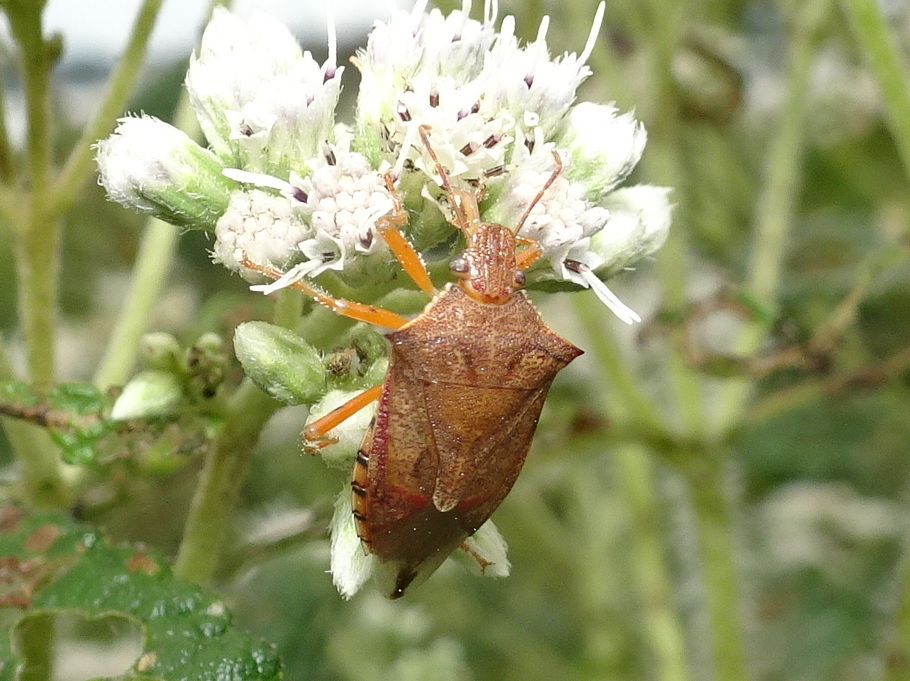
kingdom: Animalia
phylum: Arthropoda
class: Insecta
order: Hemiptera
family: Pentatomidae
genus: Podisus
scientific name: Podisus maculiventris
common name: Spined soldier bug
